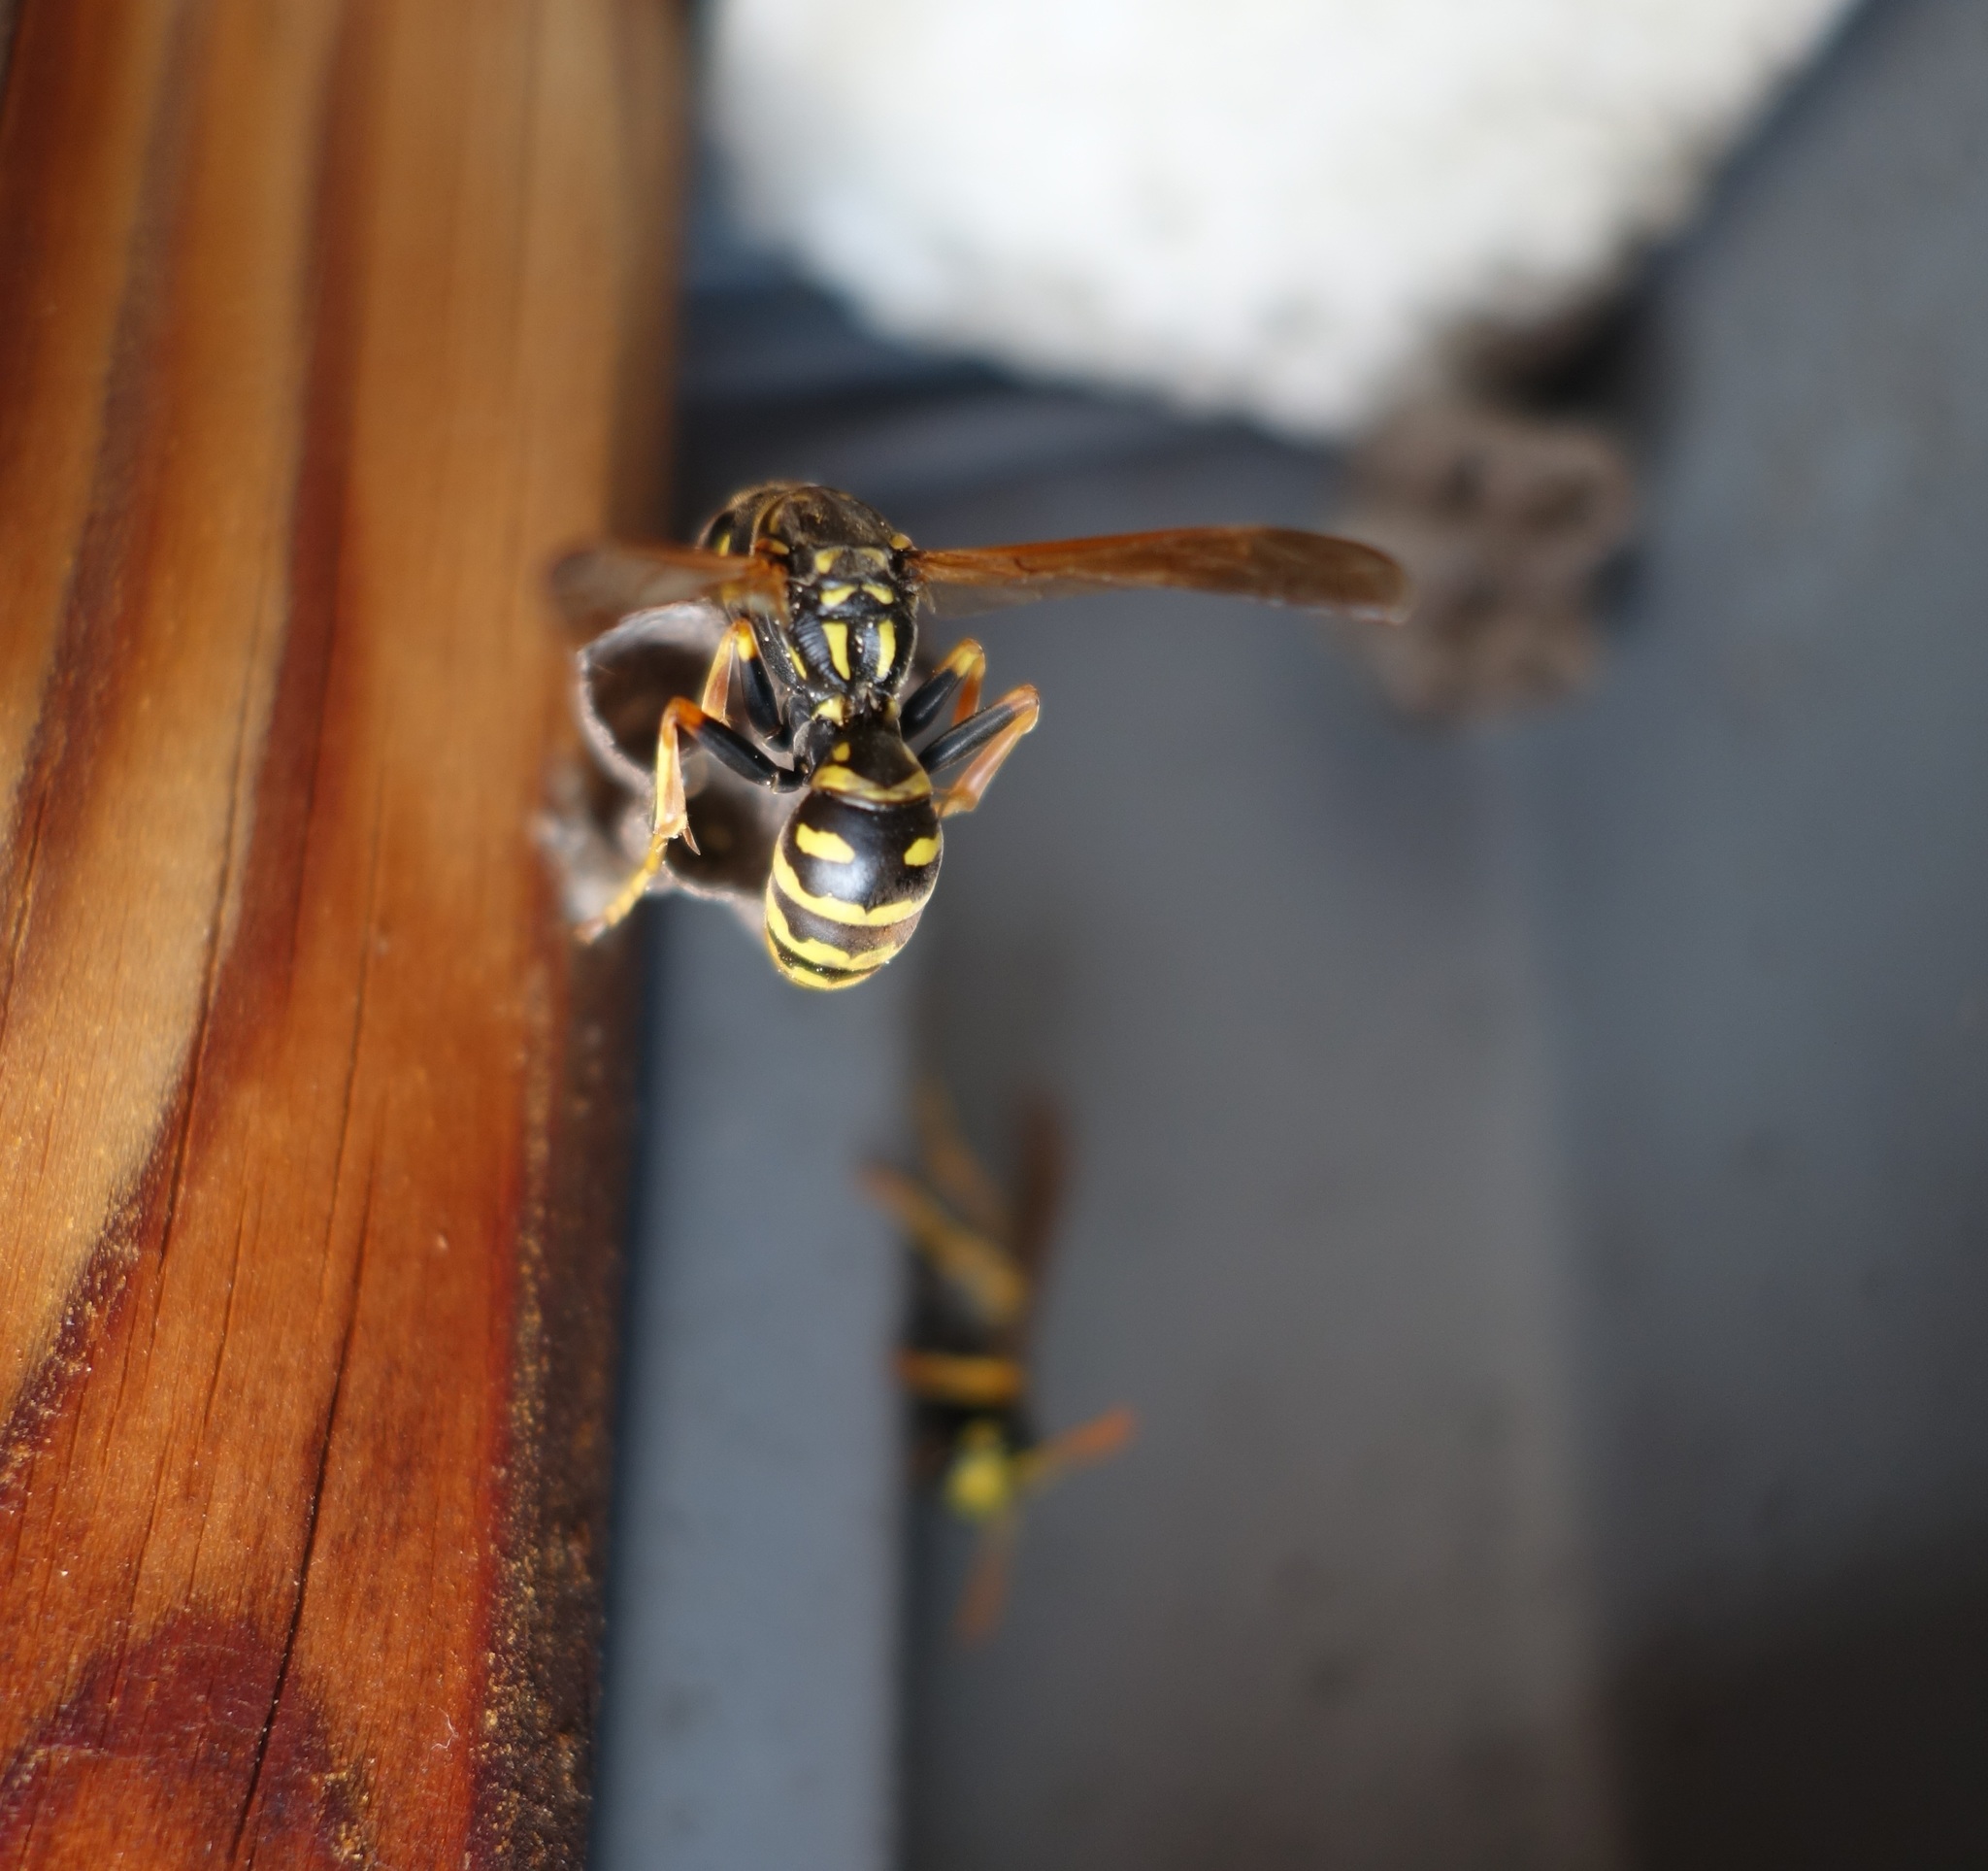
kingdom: Animalia
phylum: Arthropoda
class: Insecta
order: Hymenoptera
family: Eumenidae
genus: Polistes
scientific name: Polistes dominula
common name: Paper wasp
